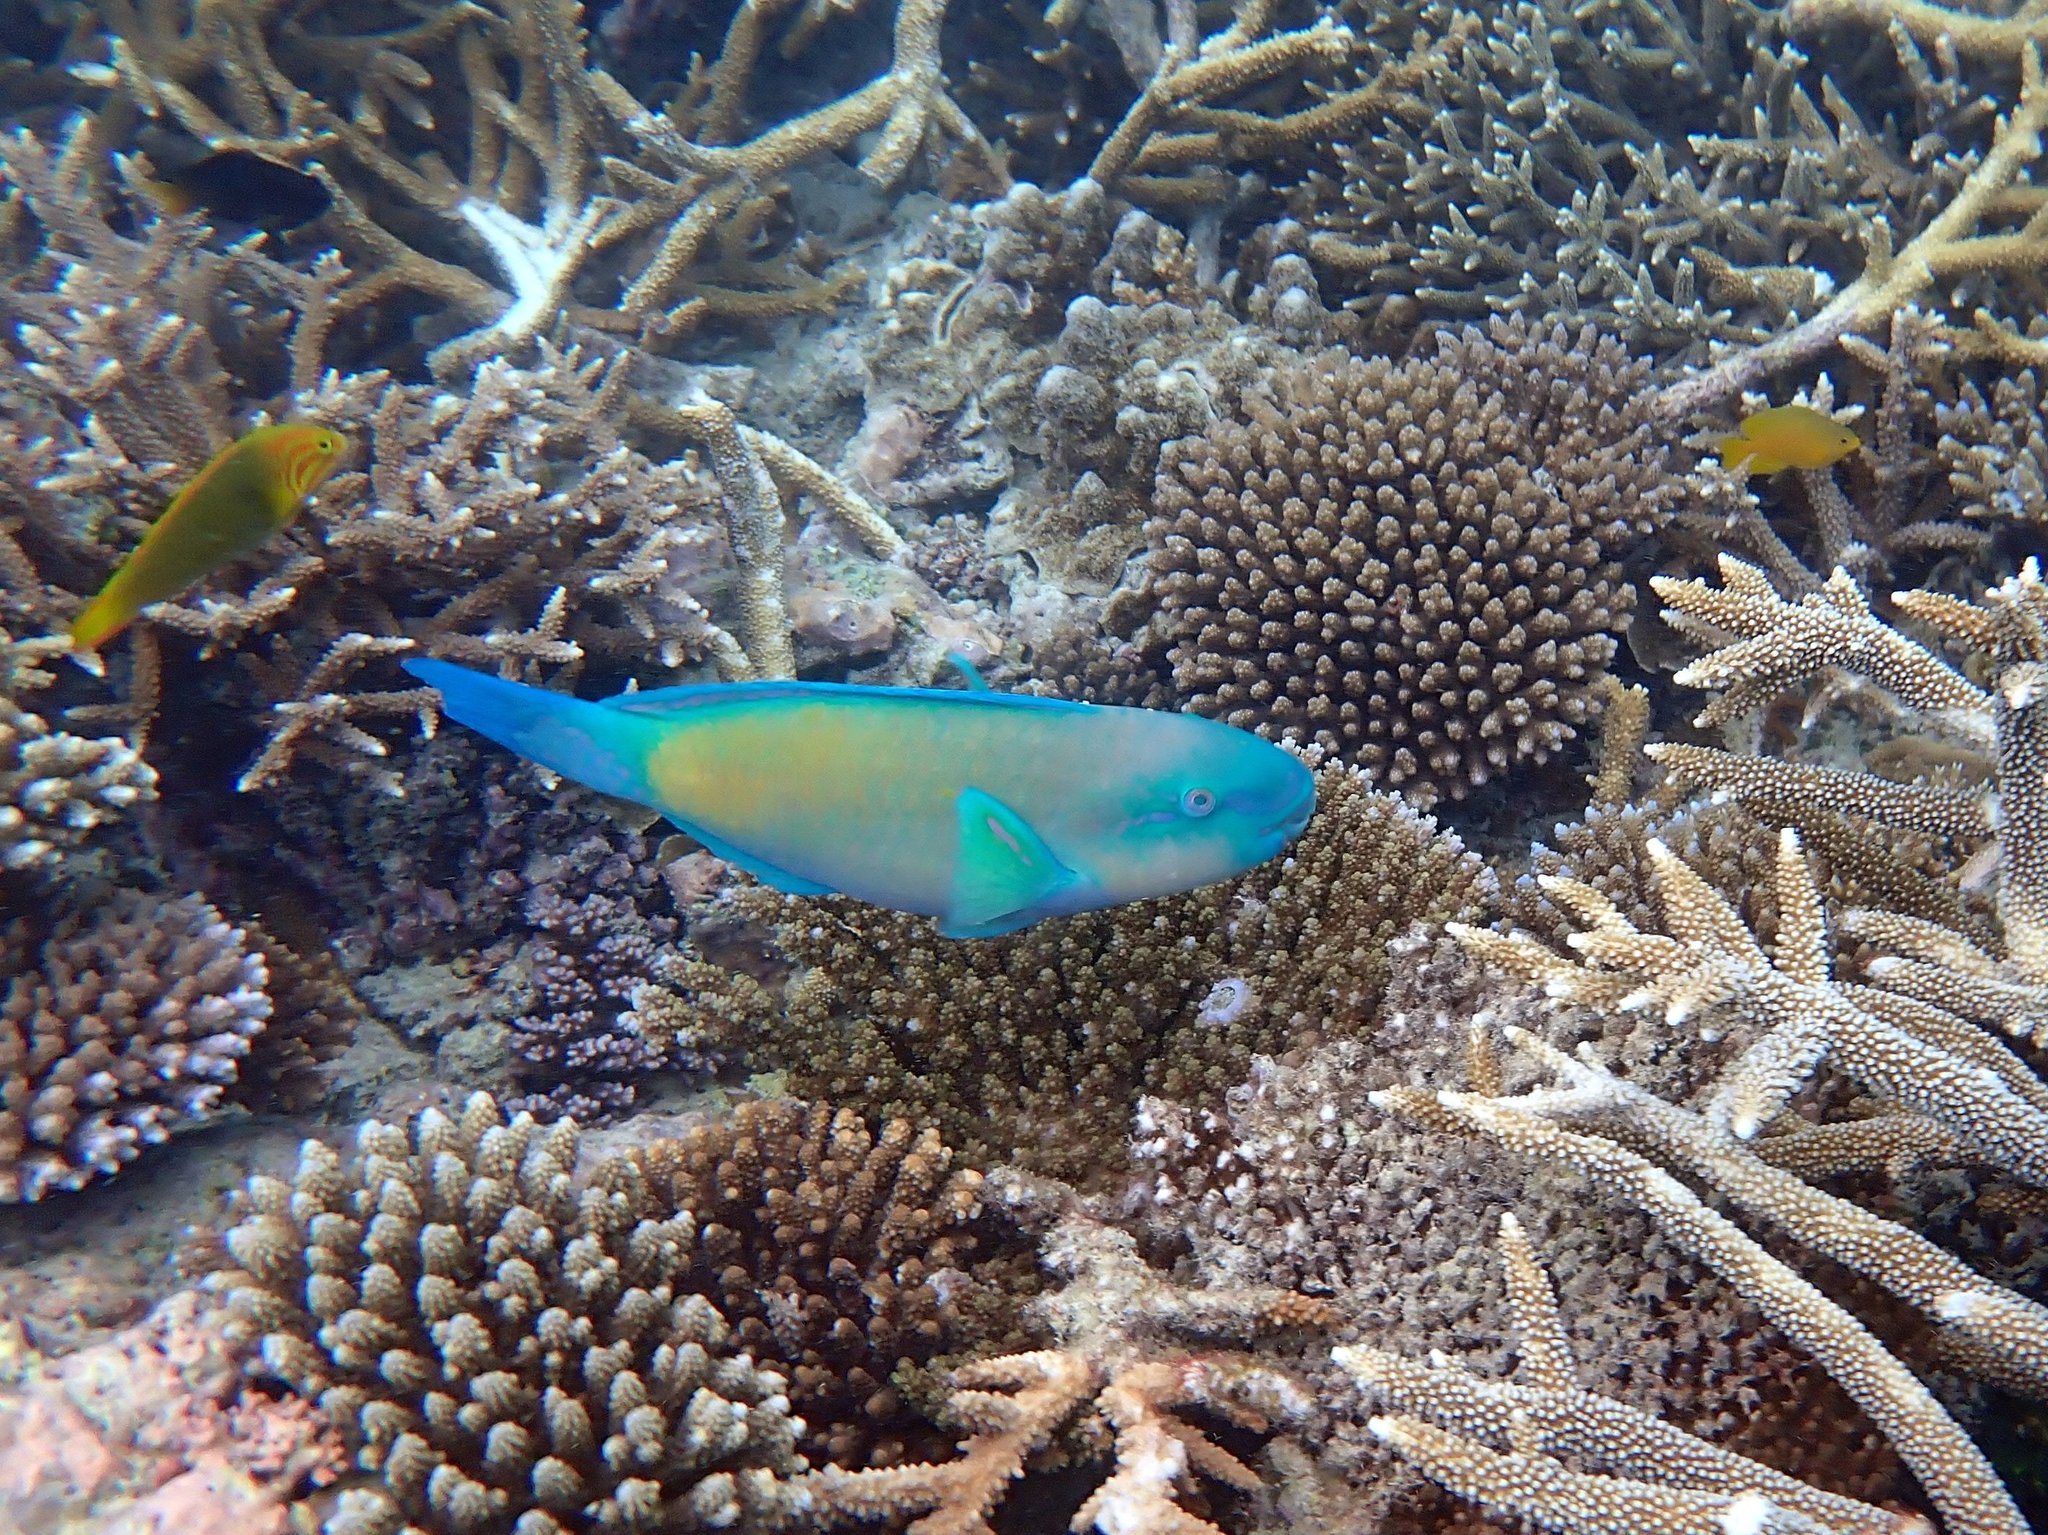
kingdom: Animalia
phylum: Chordata
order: Perciformes
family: Scaridae
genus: Chlorurus
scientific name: Chlorurus spilurus
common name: Bullethead parrotfish
